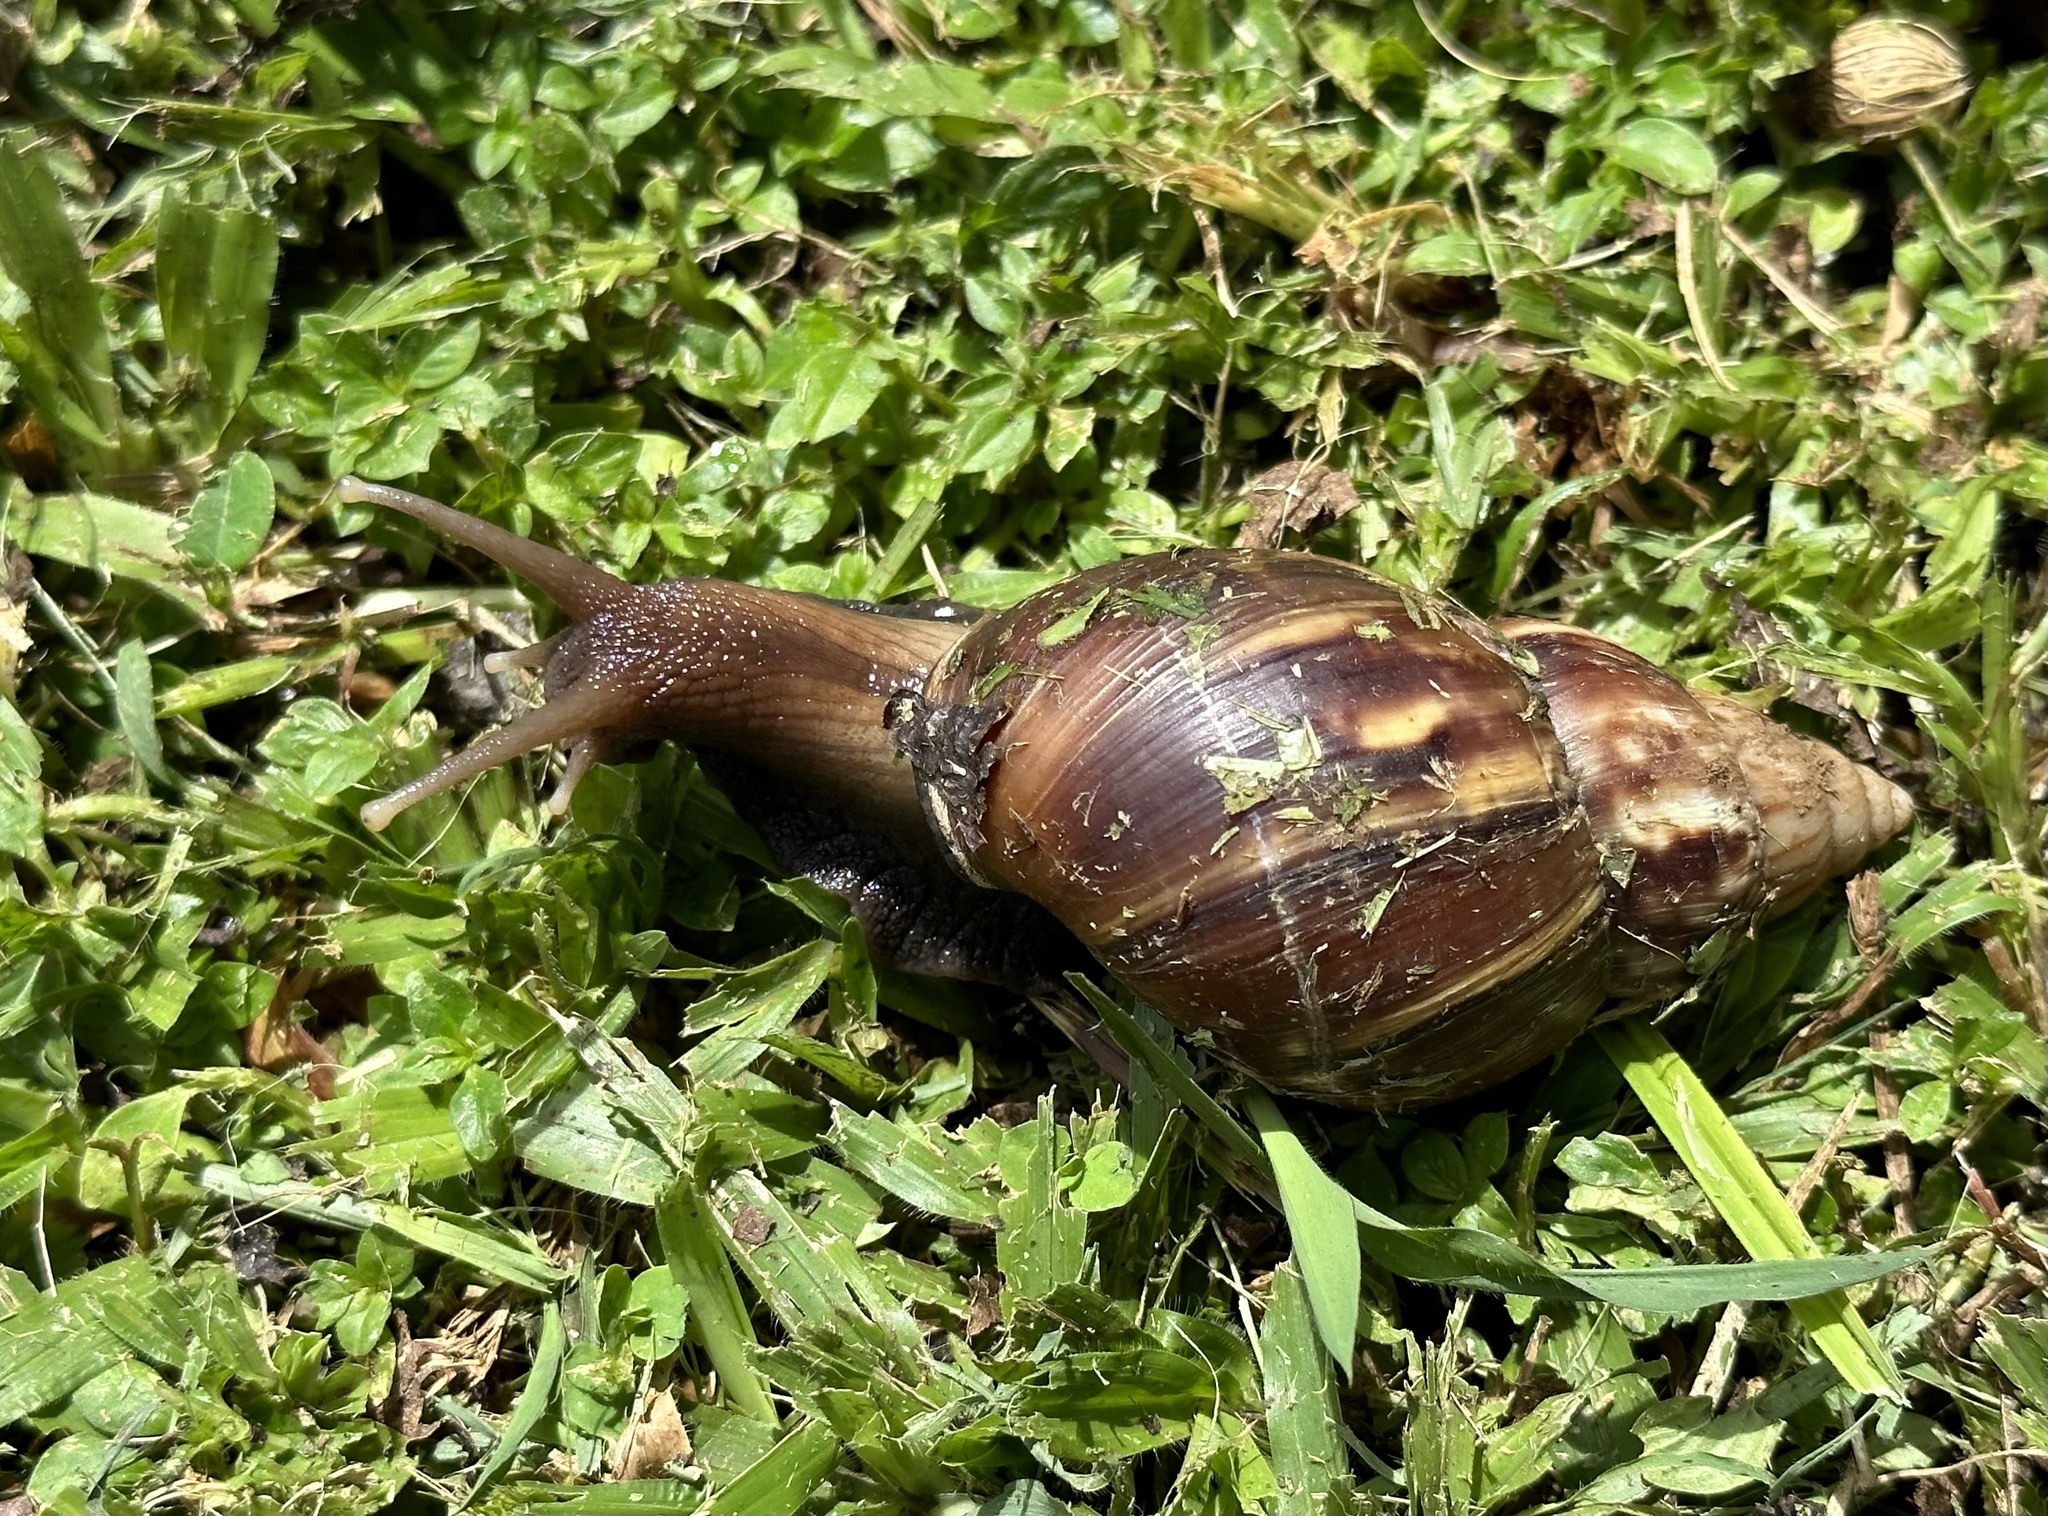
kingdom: Animalia
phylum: Mollusca
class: Gastropoda
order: Stylommatophora
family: Achatinidae
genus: Lissachatina
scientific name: Lissachatina fulica
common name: Giant african snail
